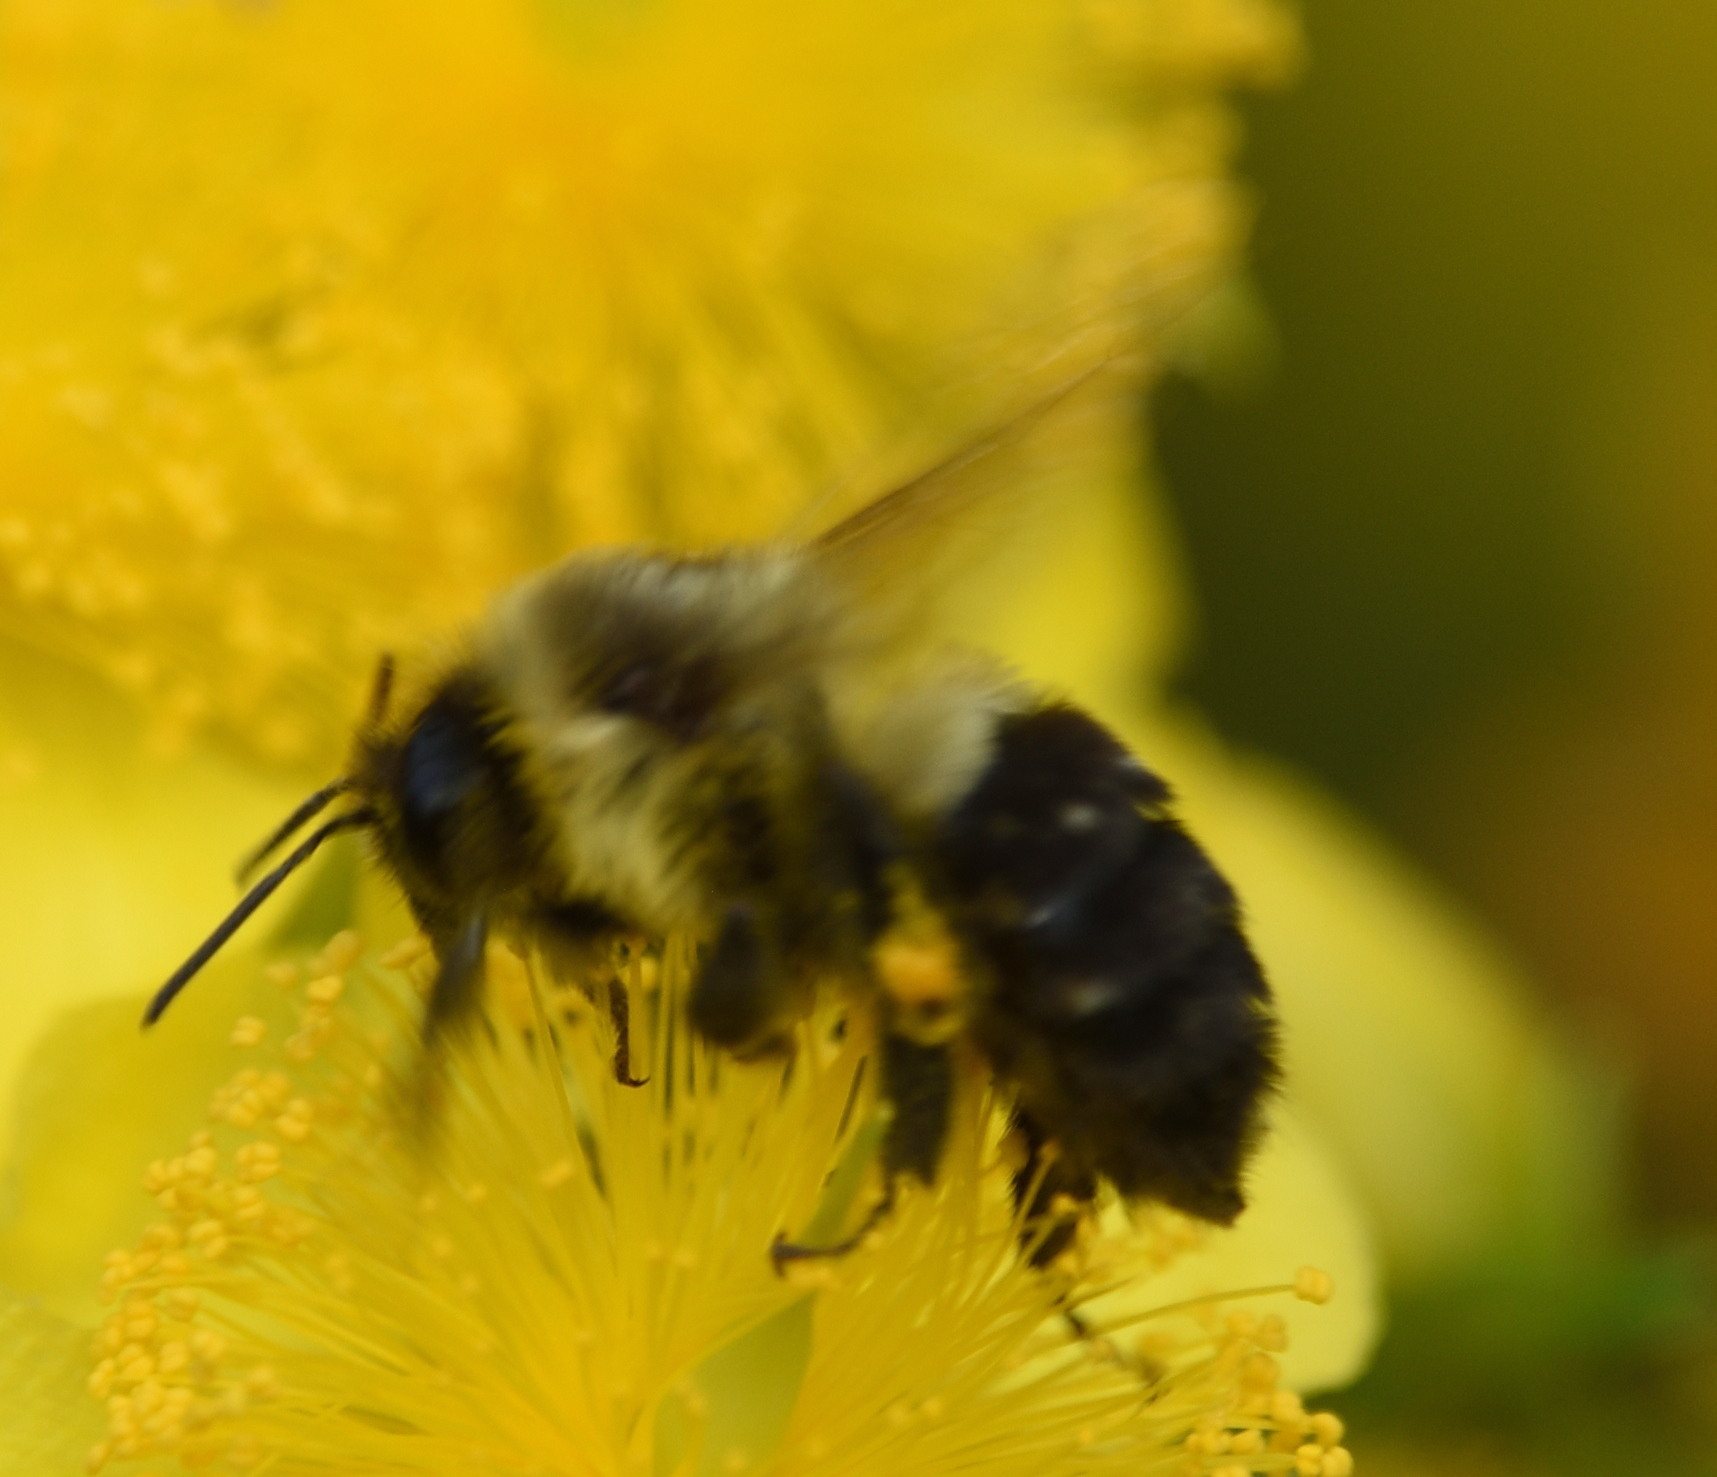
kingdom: Animalia
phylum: Arthropoda
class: Insecta
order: Hymenoptera
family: Apidae
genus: Bombus
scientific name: Bombus impatiens
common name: Common eastern bumble bee
